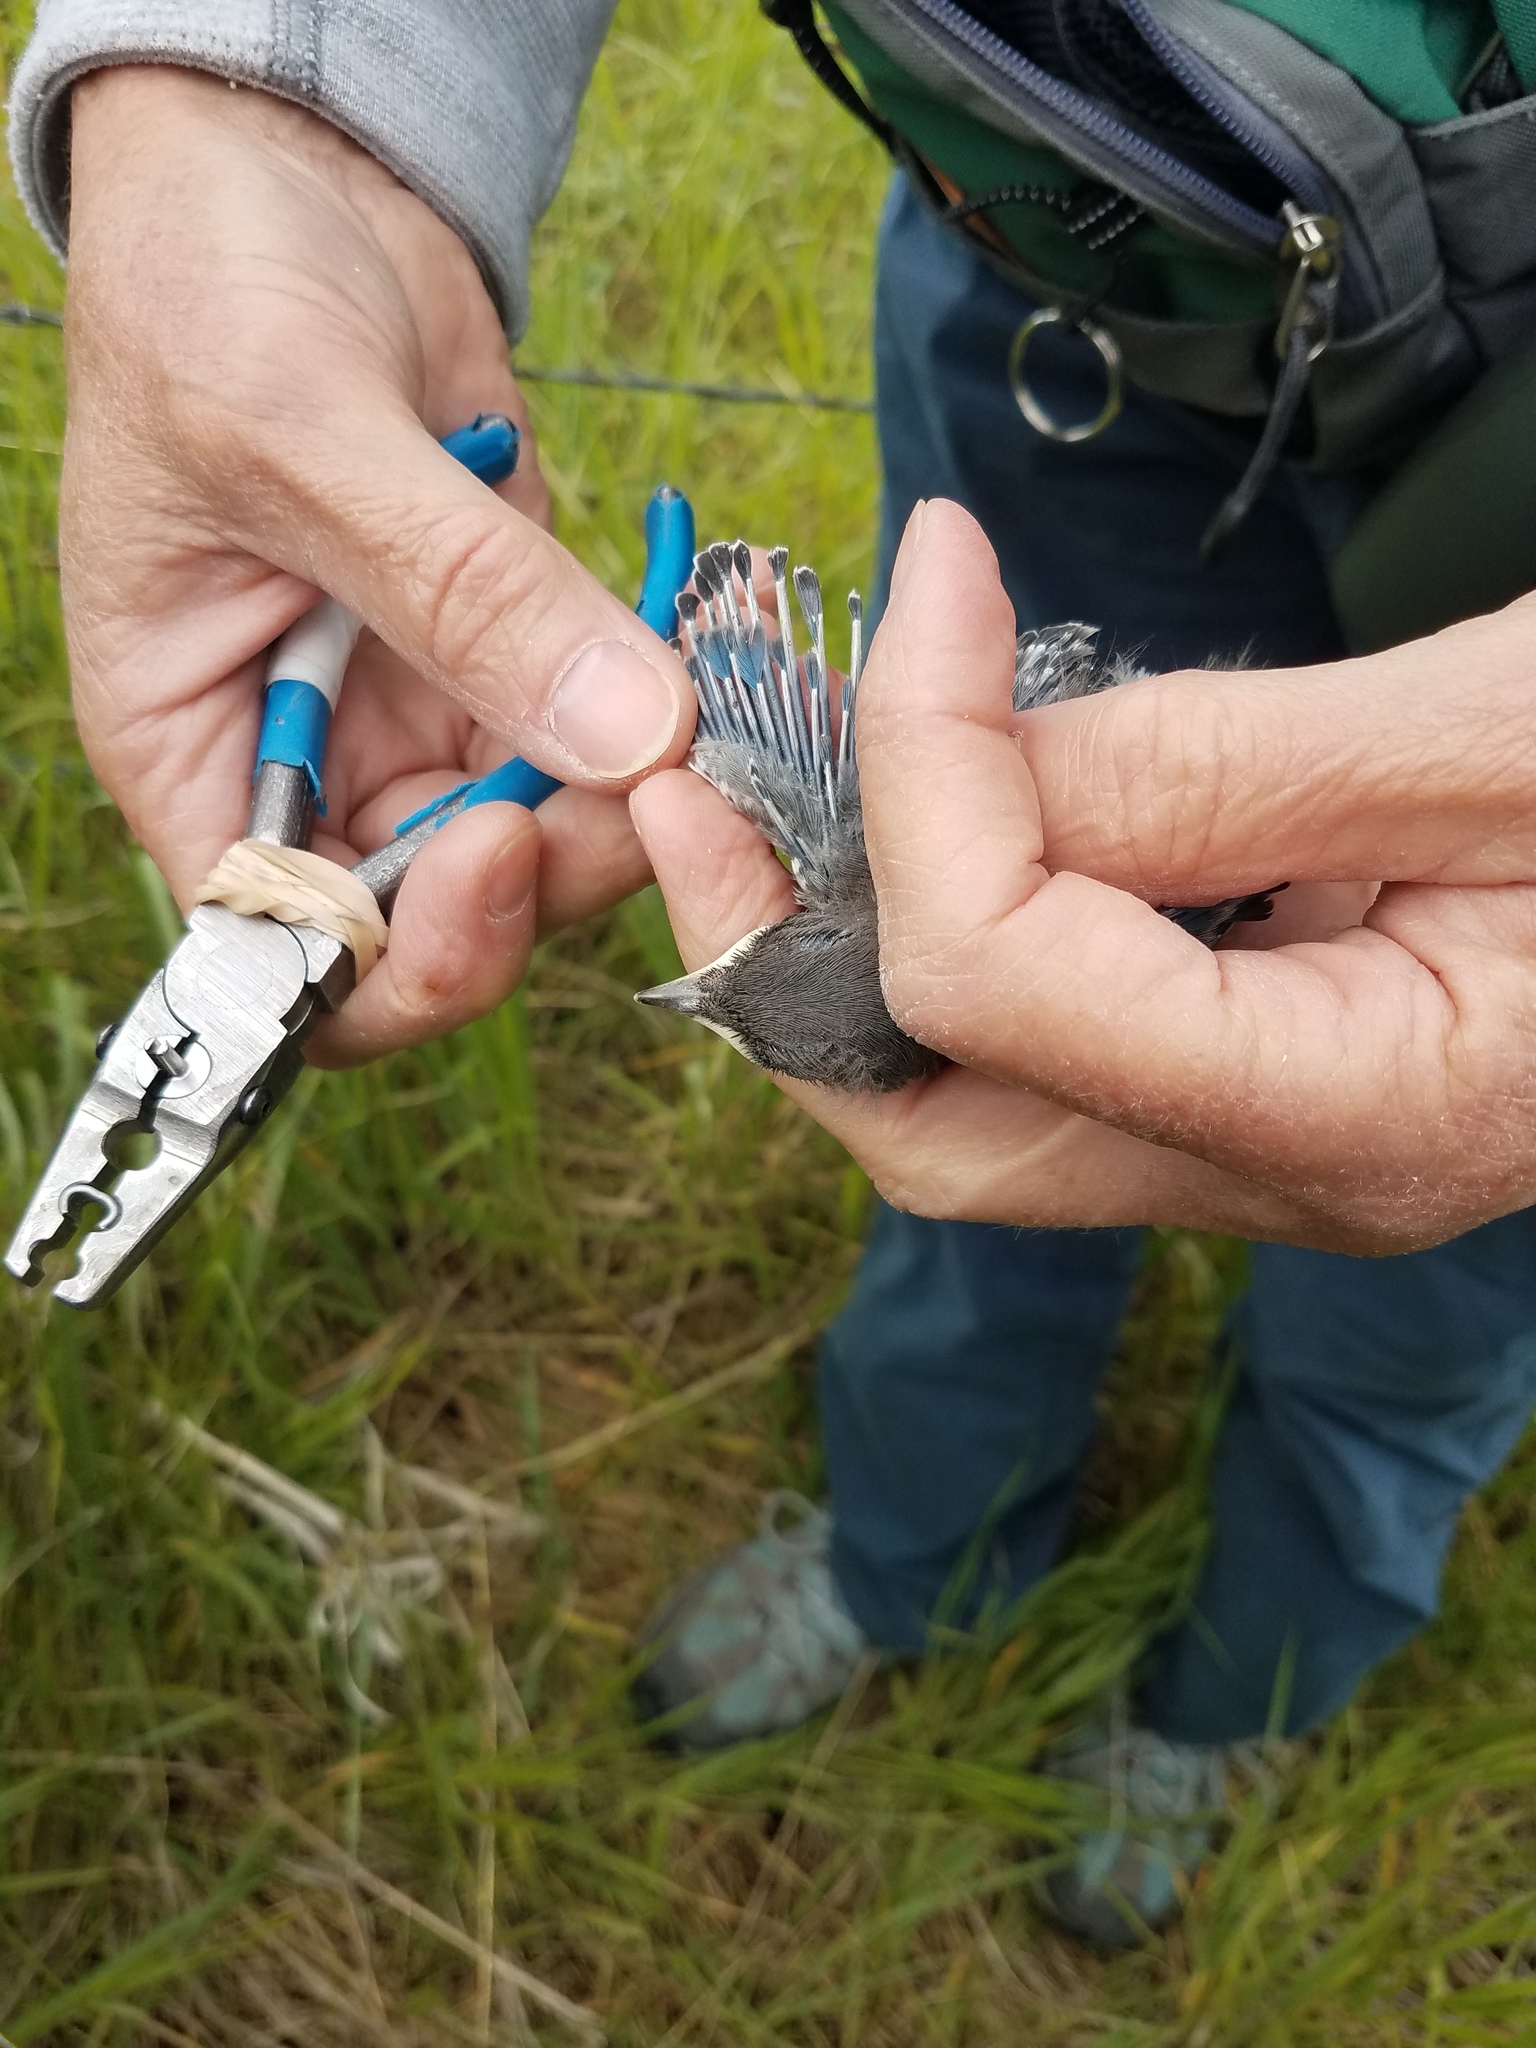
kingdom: Animalia
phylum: Chordata
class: Aves
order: Passeriformes
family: Turdidae
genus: Sialia
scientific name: Sialia currucoides
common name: Mountain bluebird
